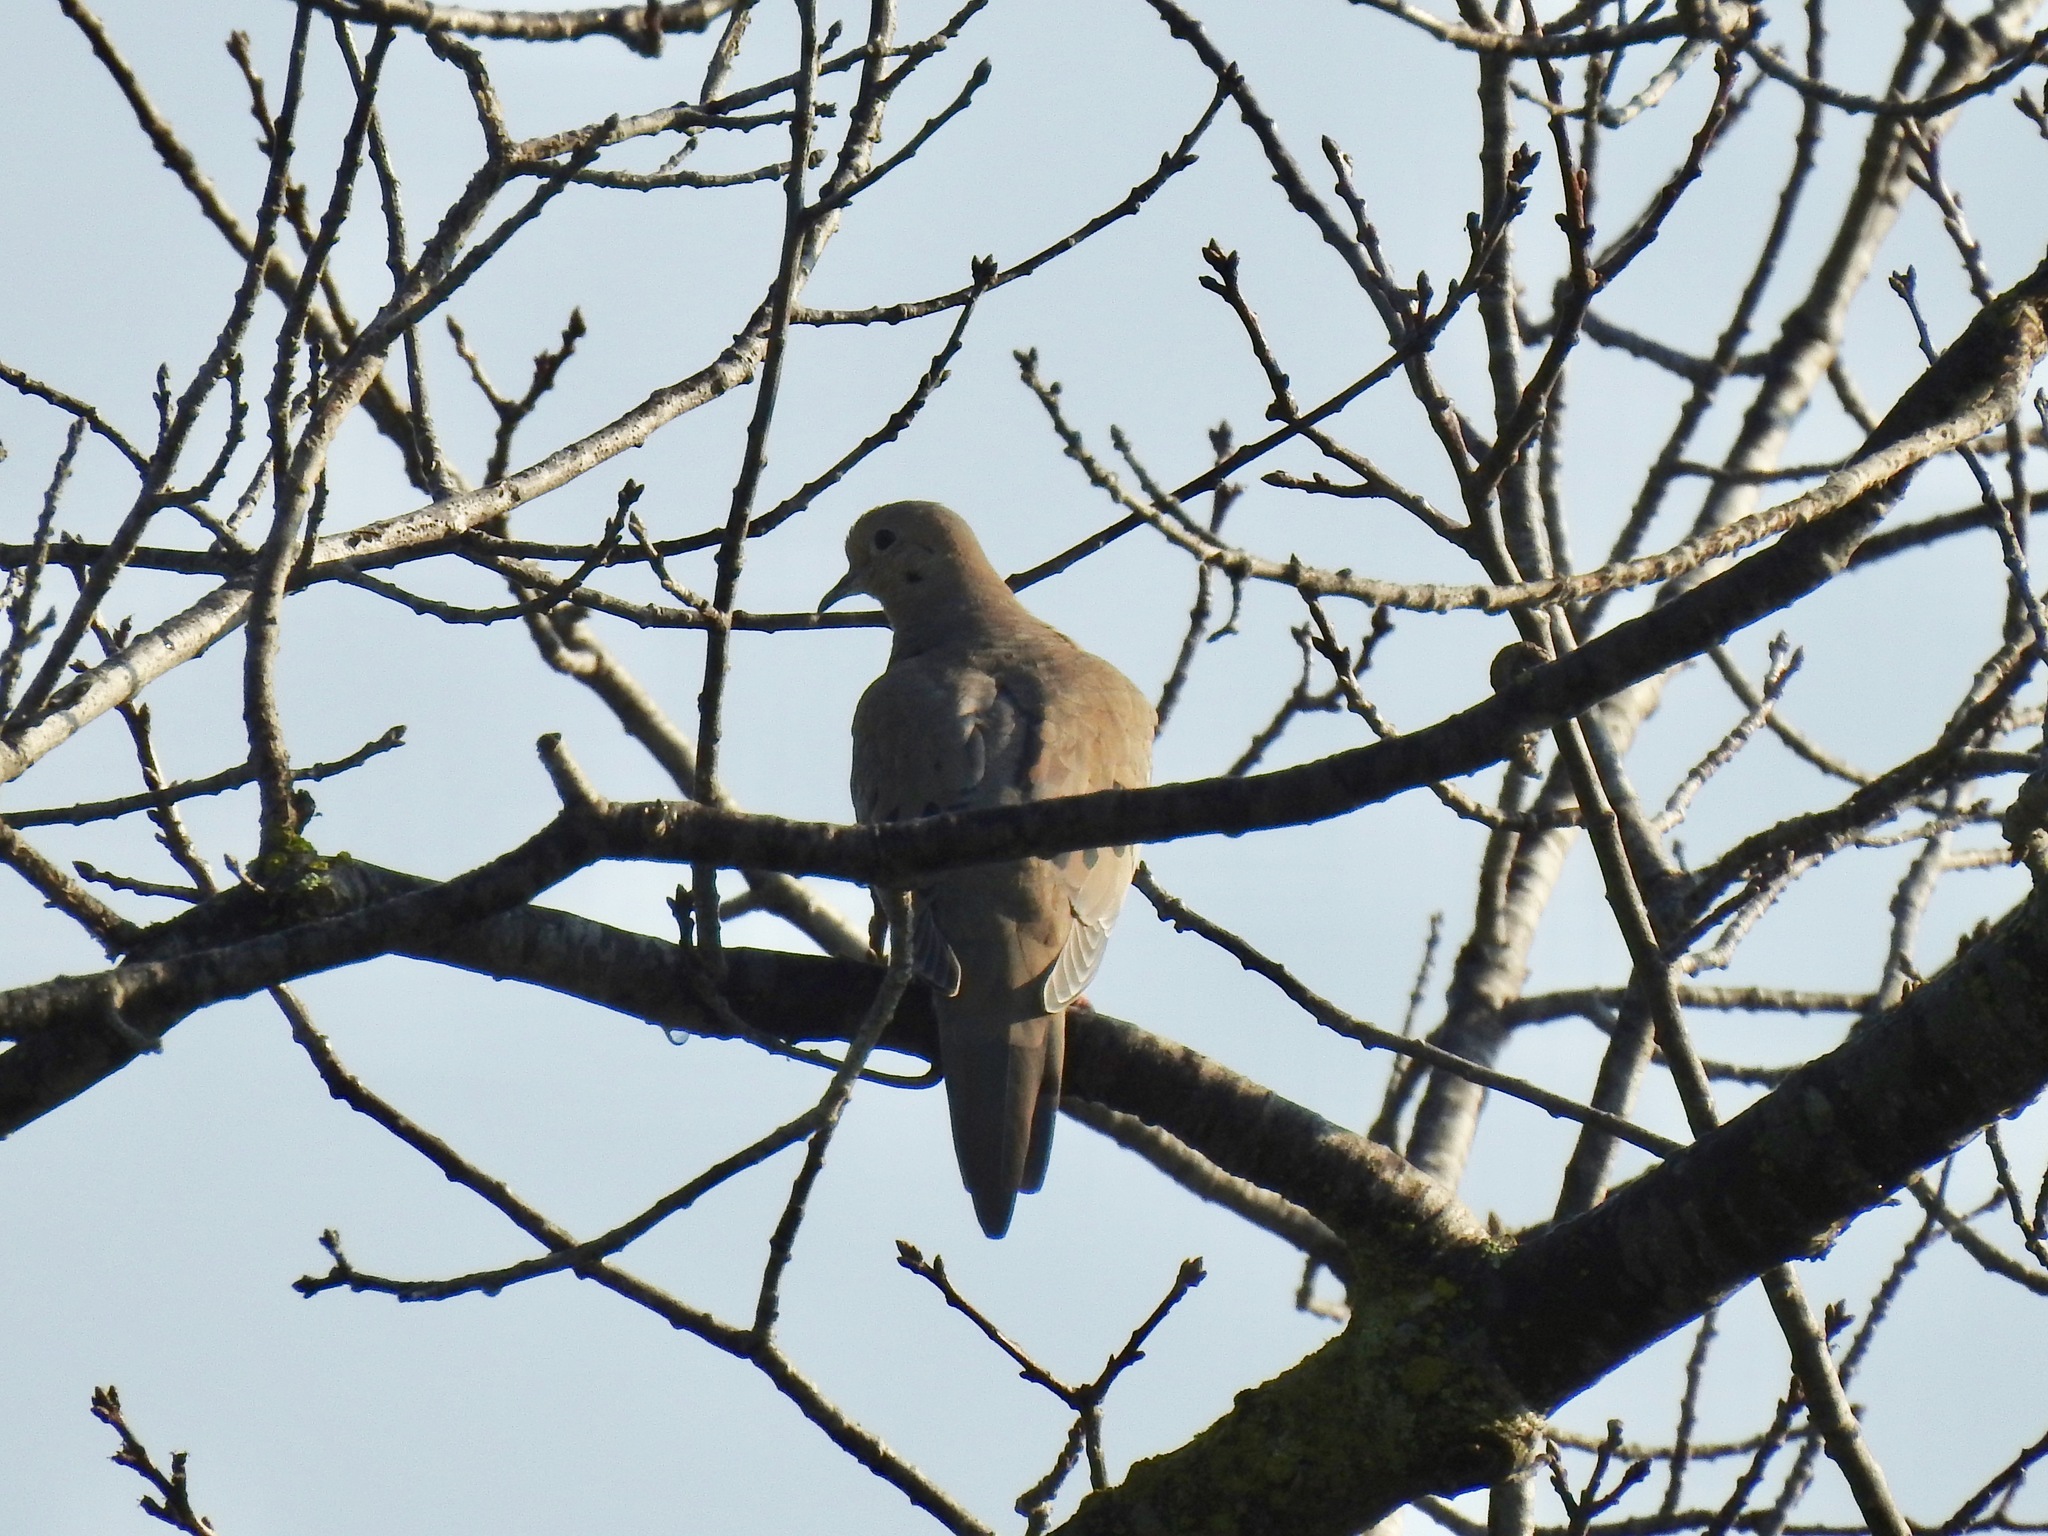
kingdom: Animalia
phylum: Chordata
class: Aves
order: Columbiformes
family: Columbidae
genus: Zenaida
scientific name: Zenaida macroura
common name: Mourning dove
